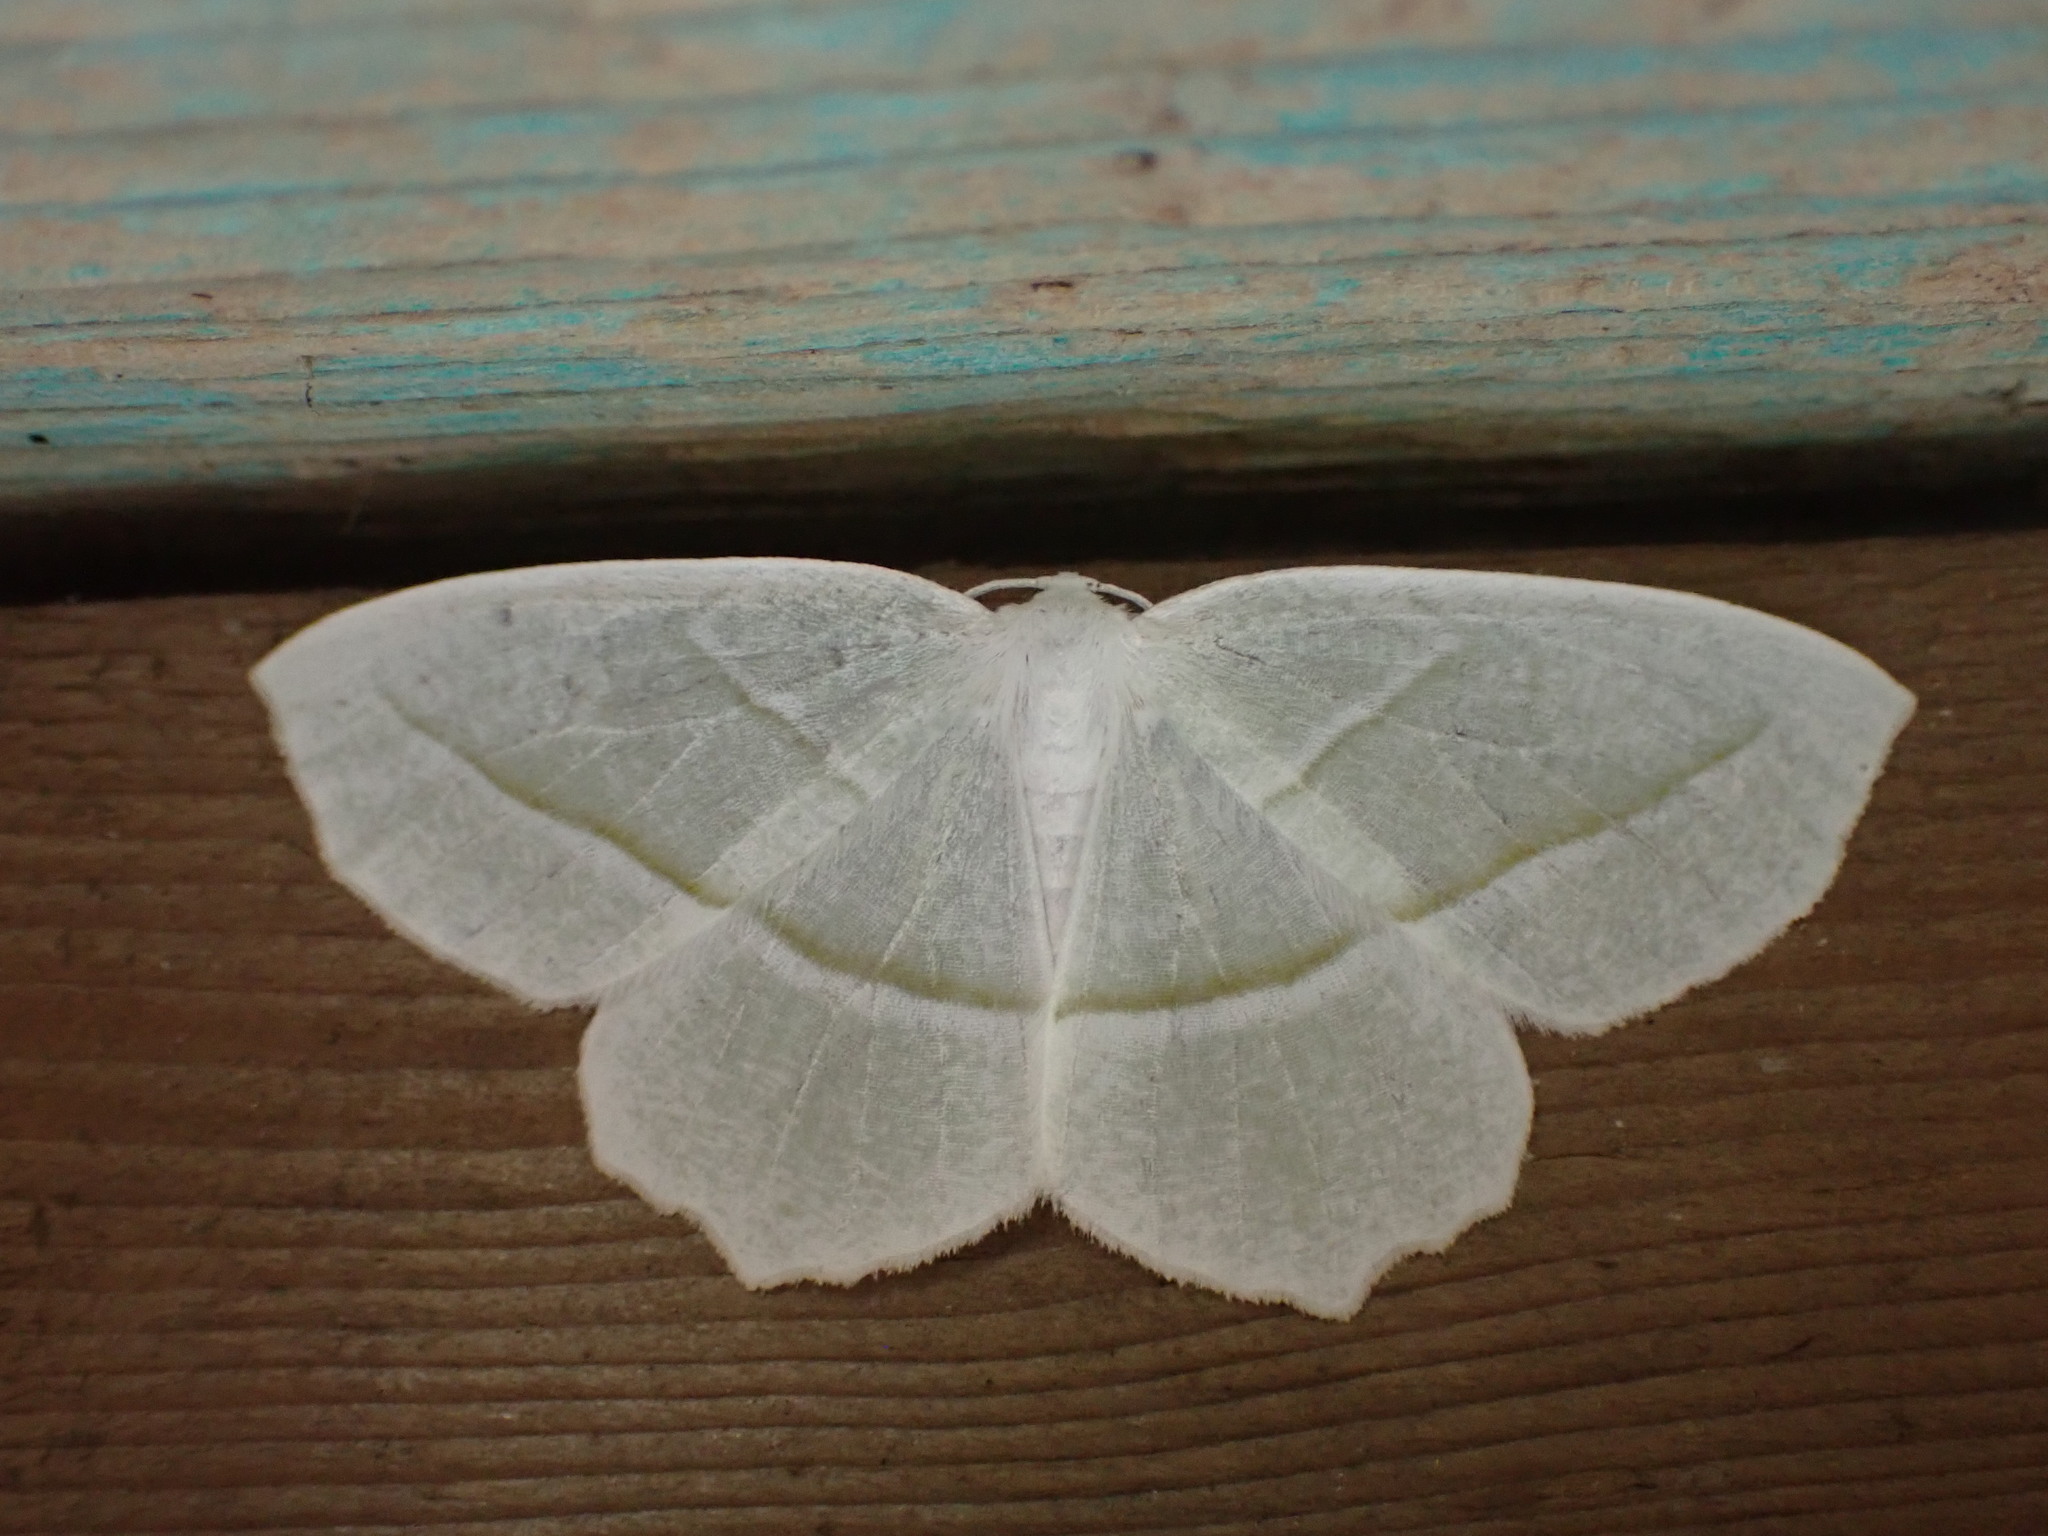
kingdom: Animalia
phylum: Arthropoda
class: Insecta
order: Lepidoptera
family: Geometridae
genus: Campaea
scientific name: Campaea perlata
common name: Fringed looper
